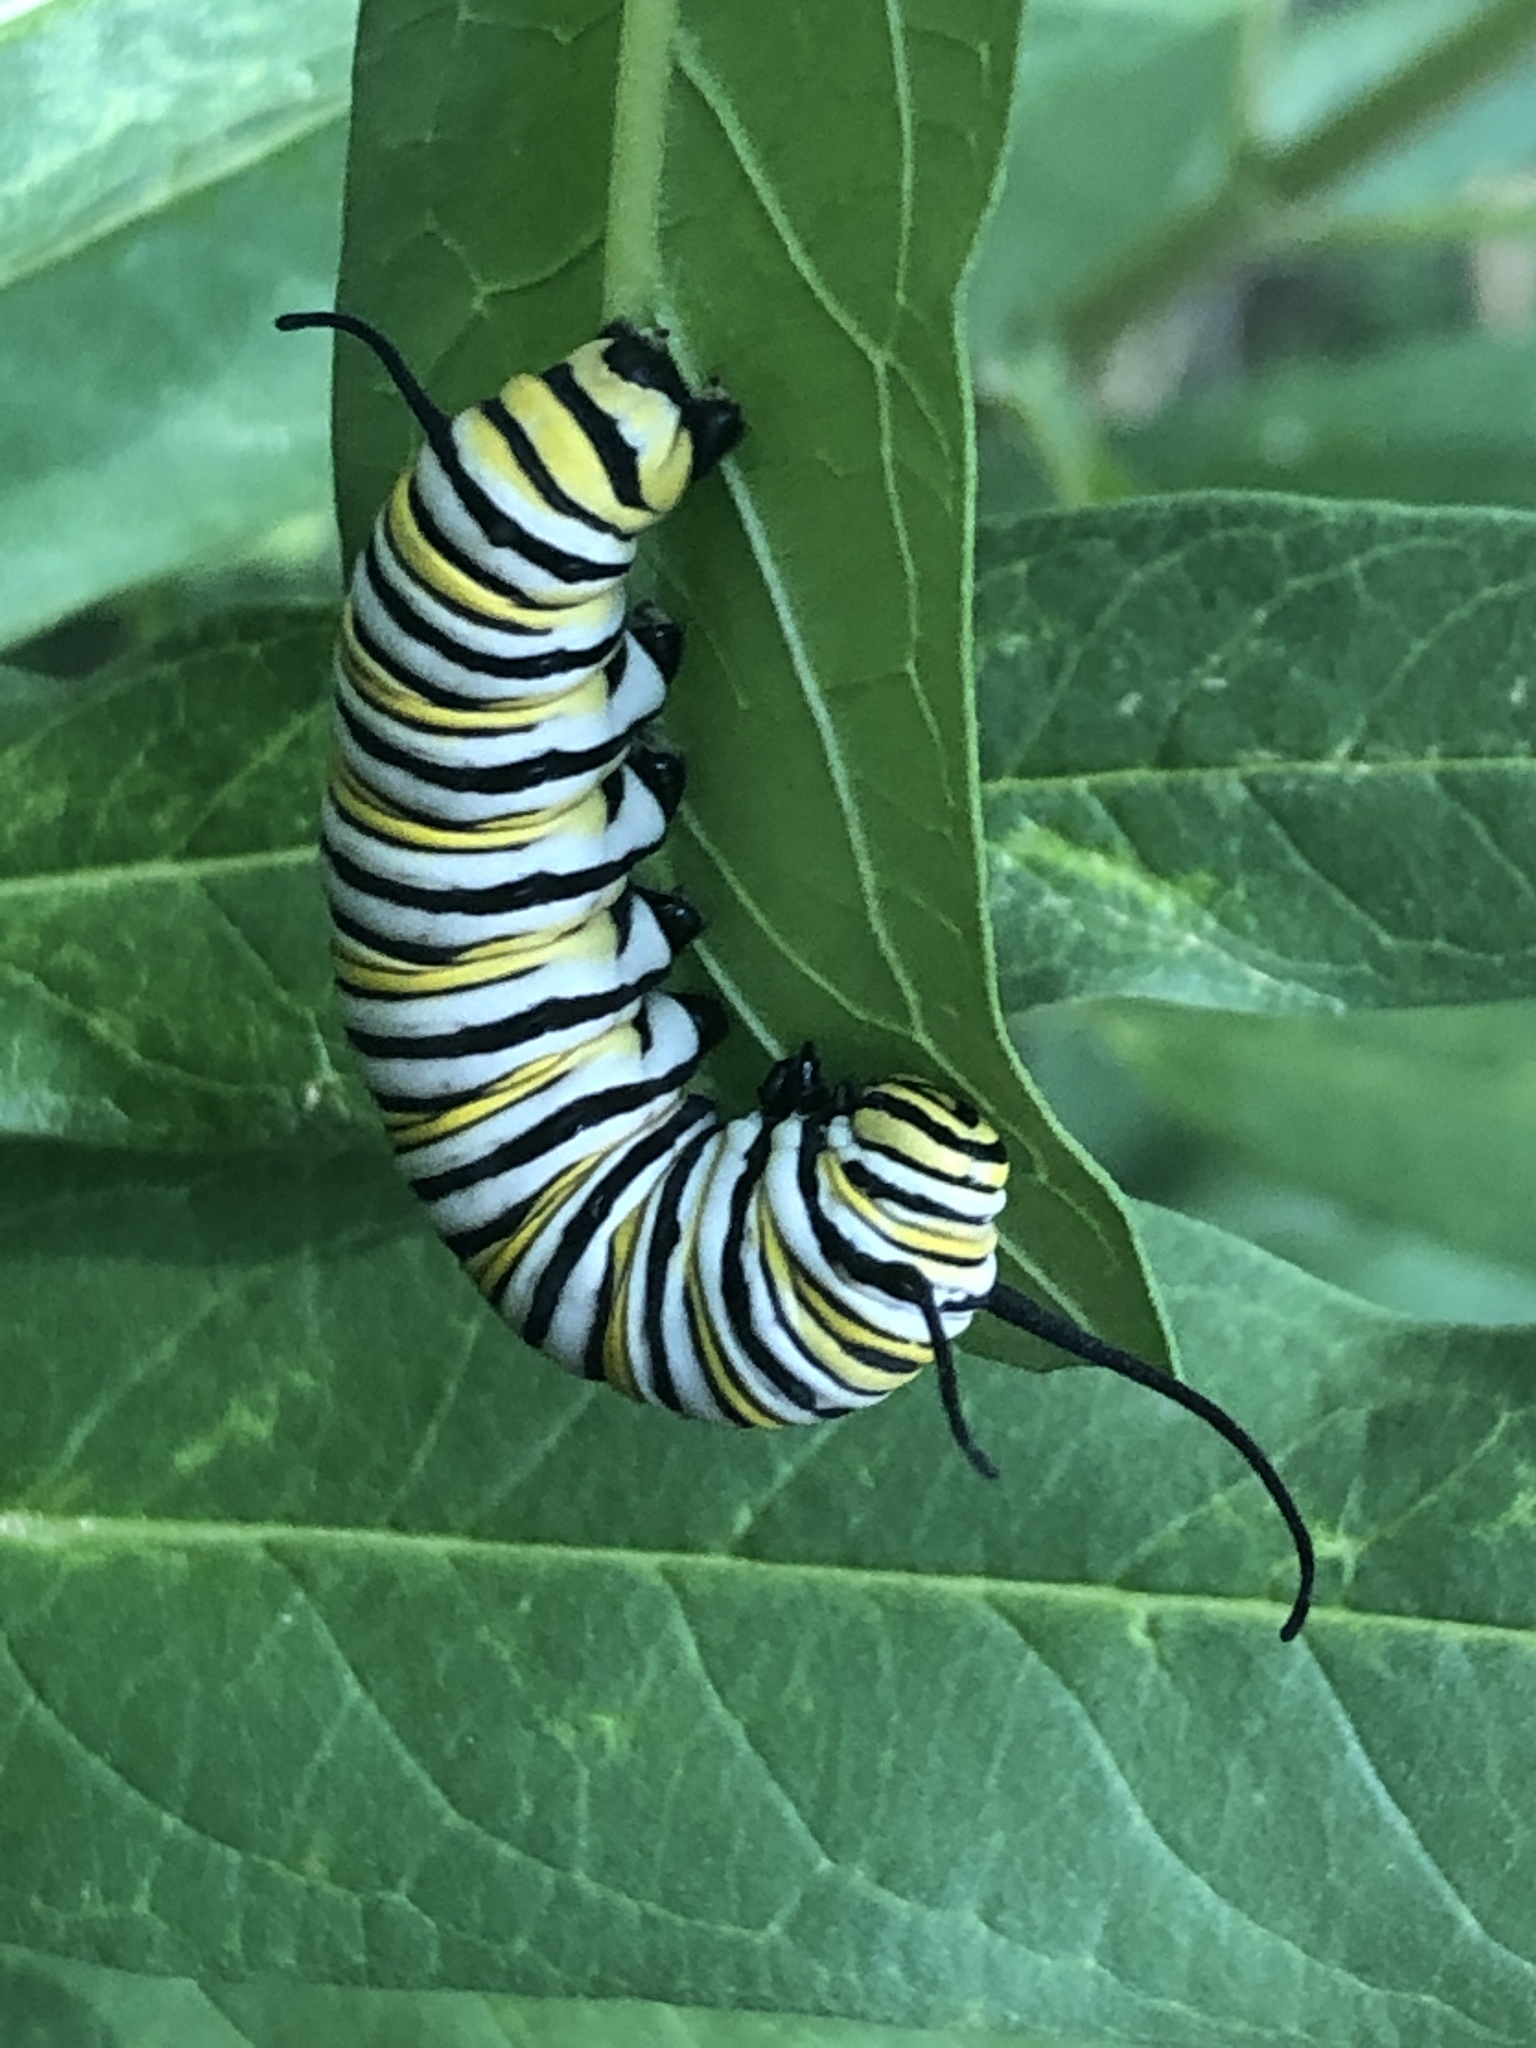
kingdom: Animalia
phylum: Arthropoda
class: Insecta
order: Lepidoptera
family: Nymphalidae
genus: Danaus
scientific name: Danaus plexippus
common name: Monarch
